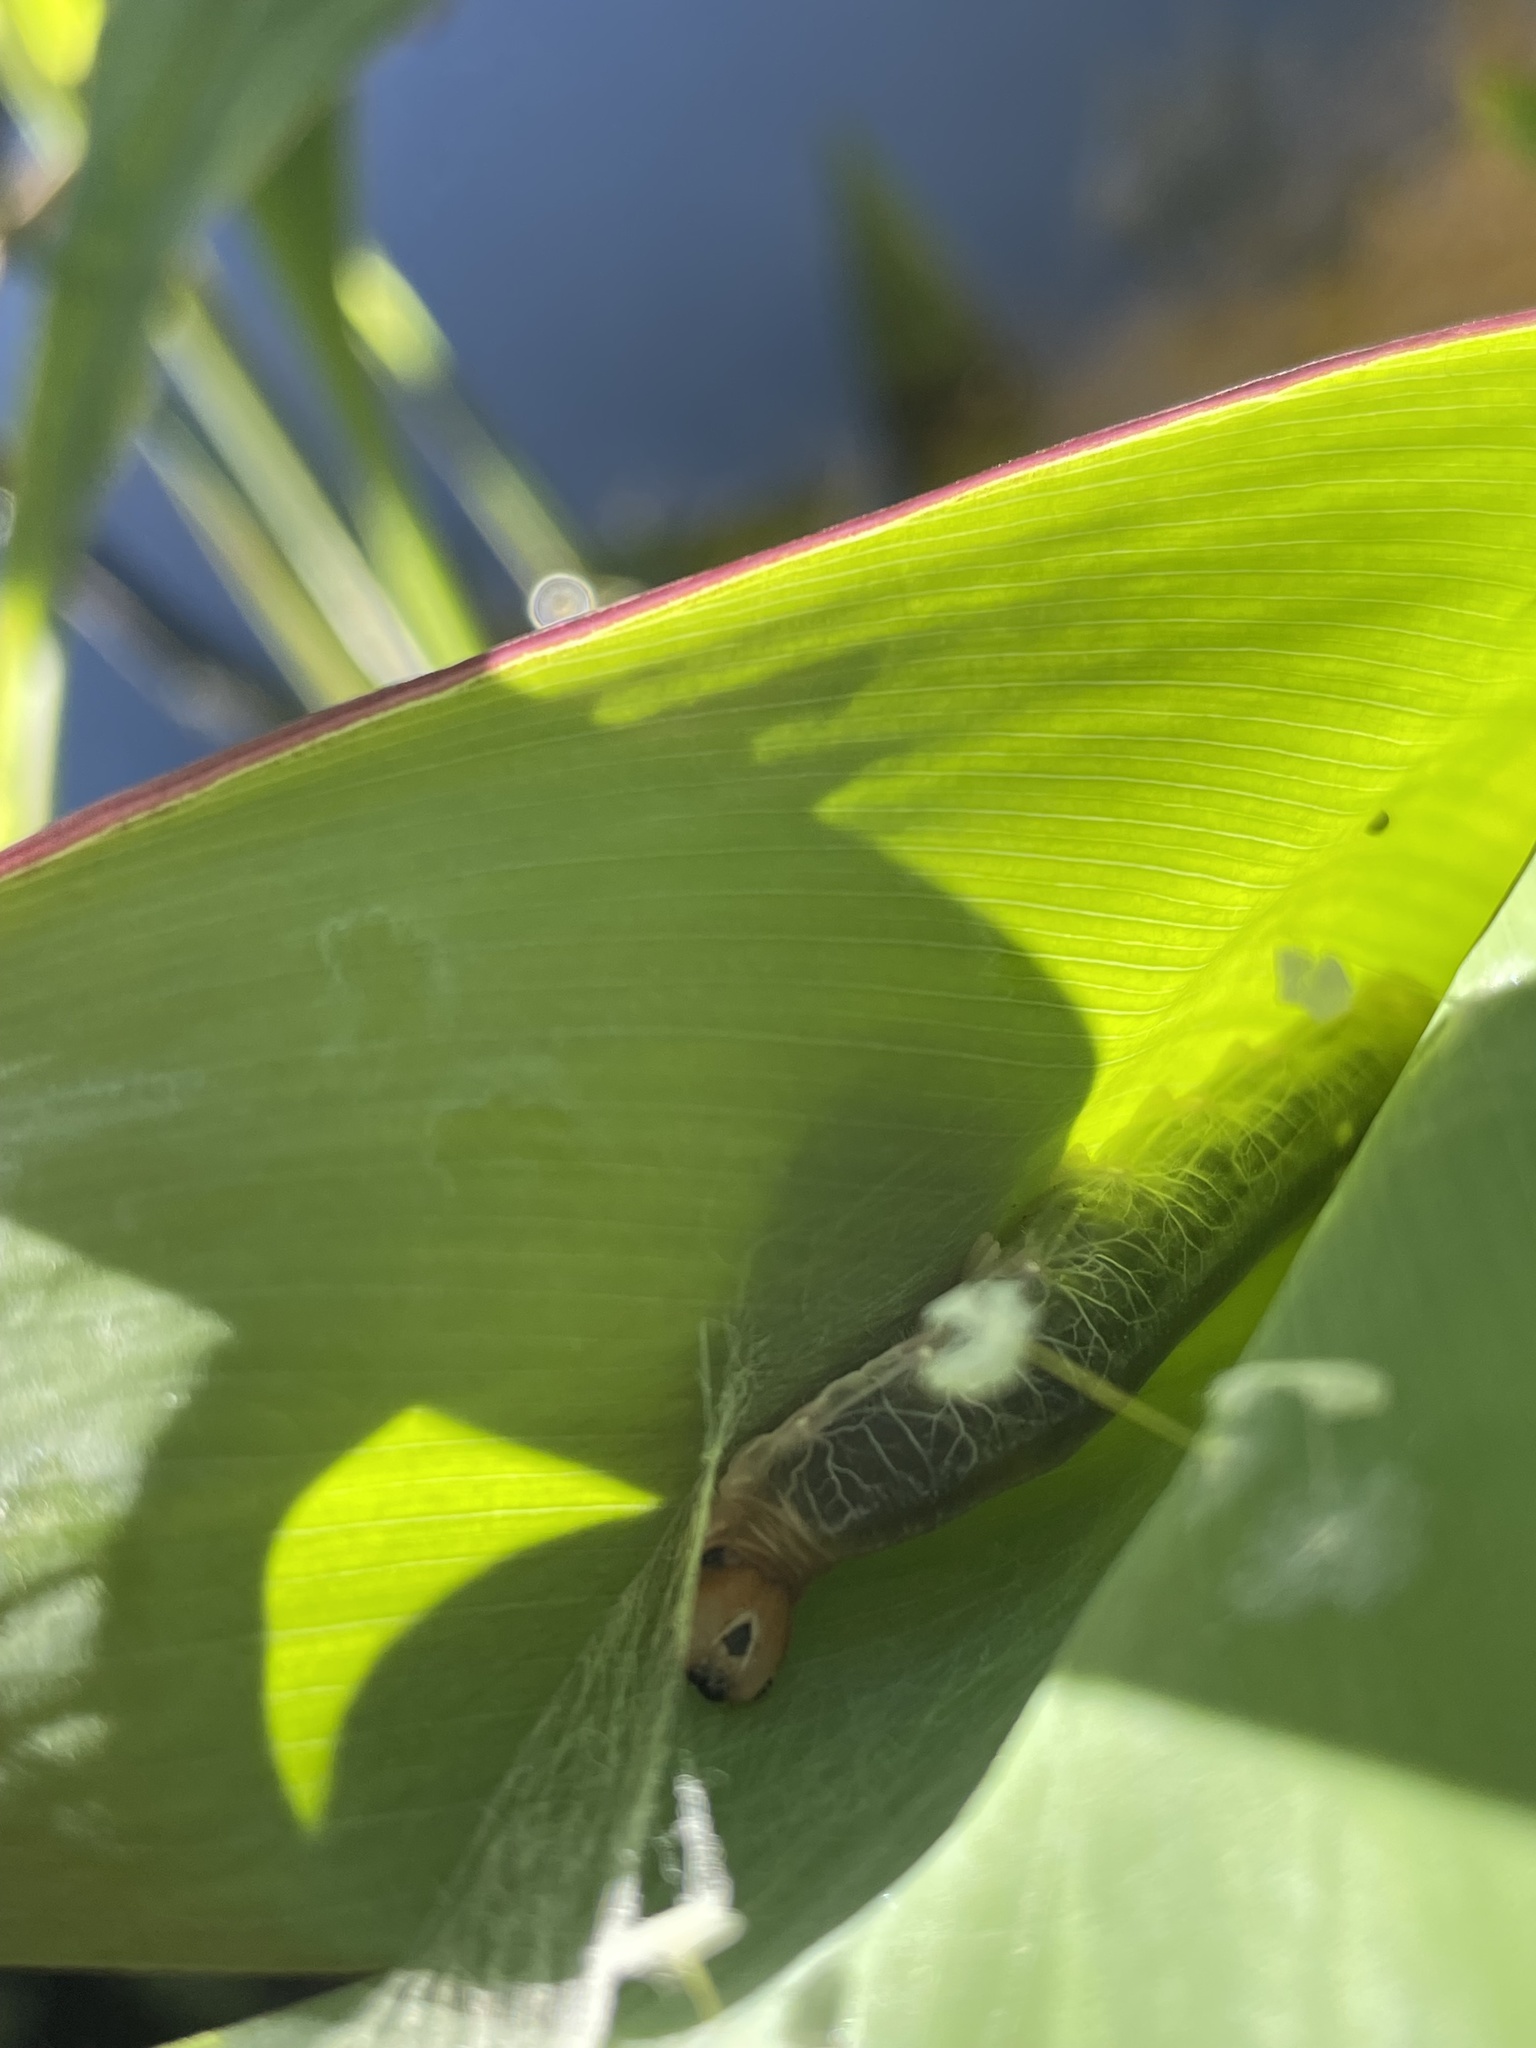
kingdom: Animalia
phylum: Arthropoda
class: Insecta
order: Lepidoptera
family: Hesperiidae
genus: Calpodes
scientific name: Calpodes ethlius
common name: Brazilian skipper
